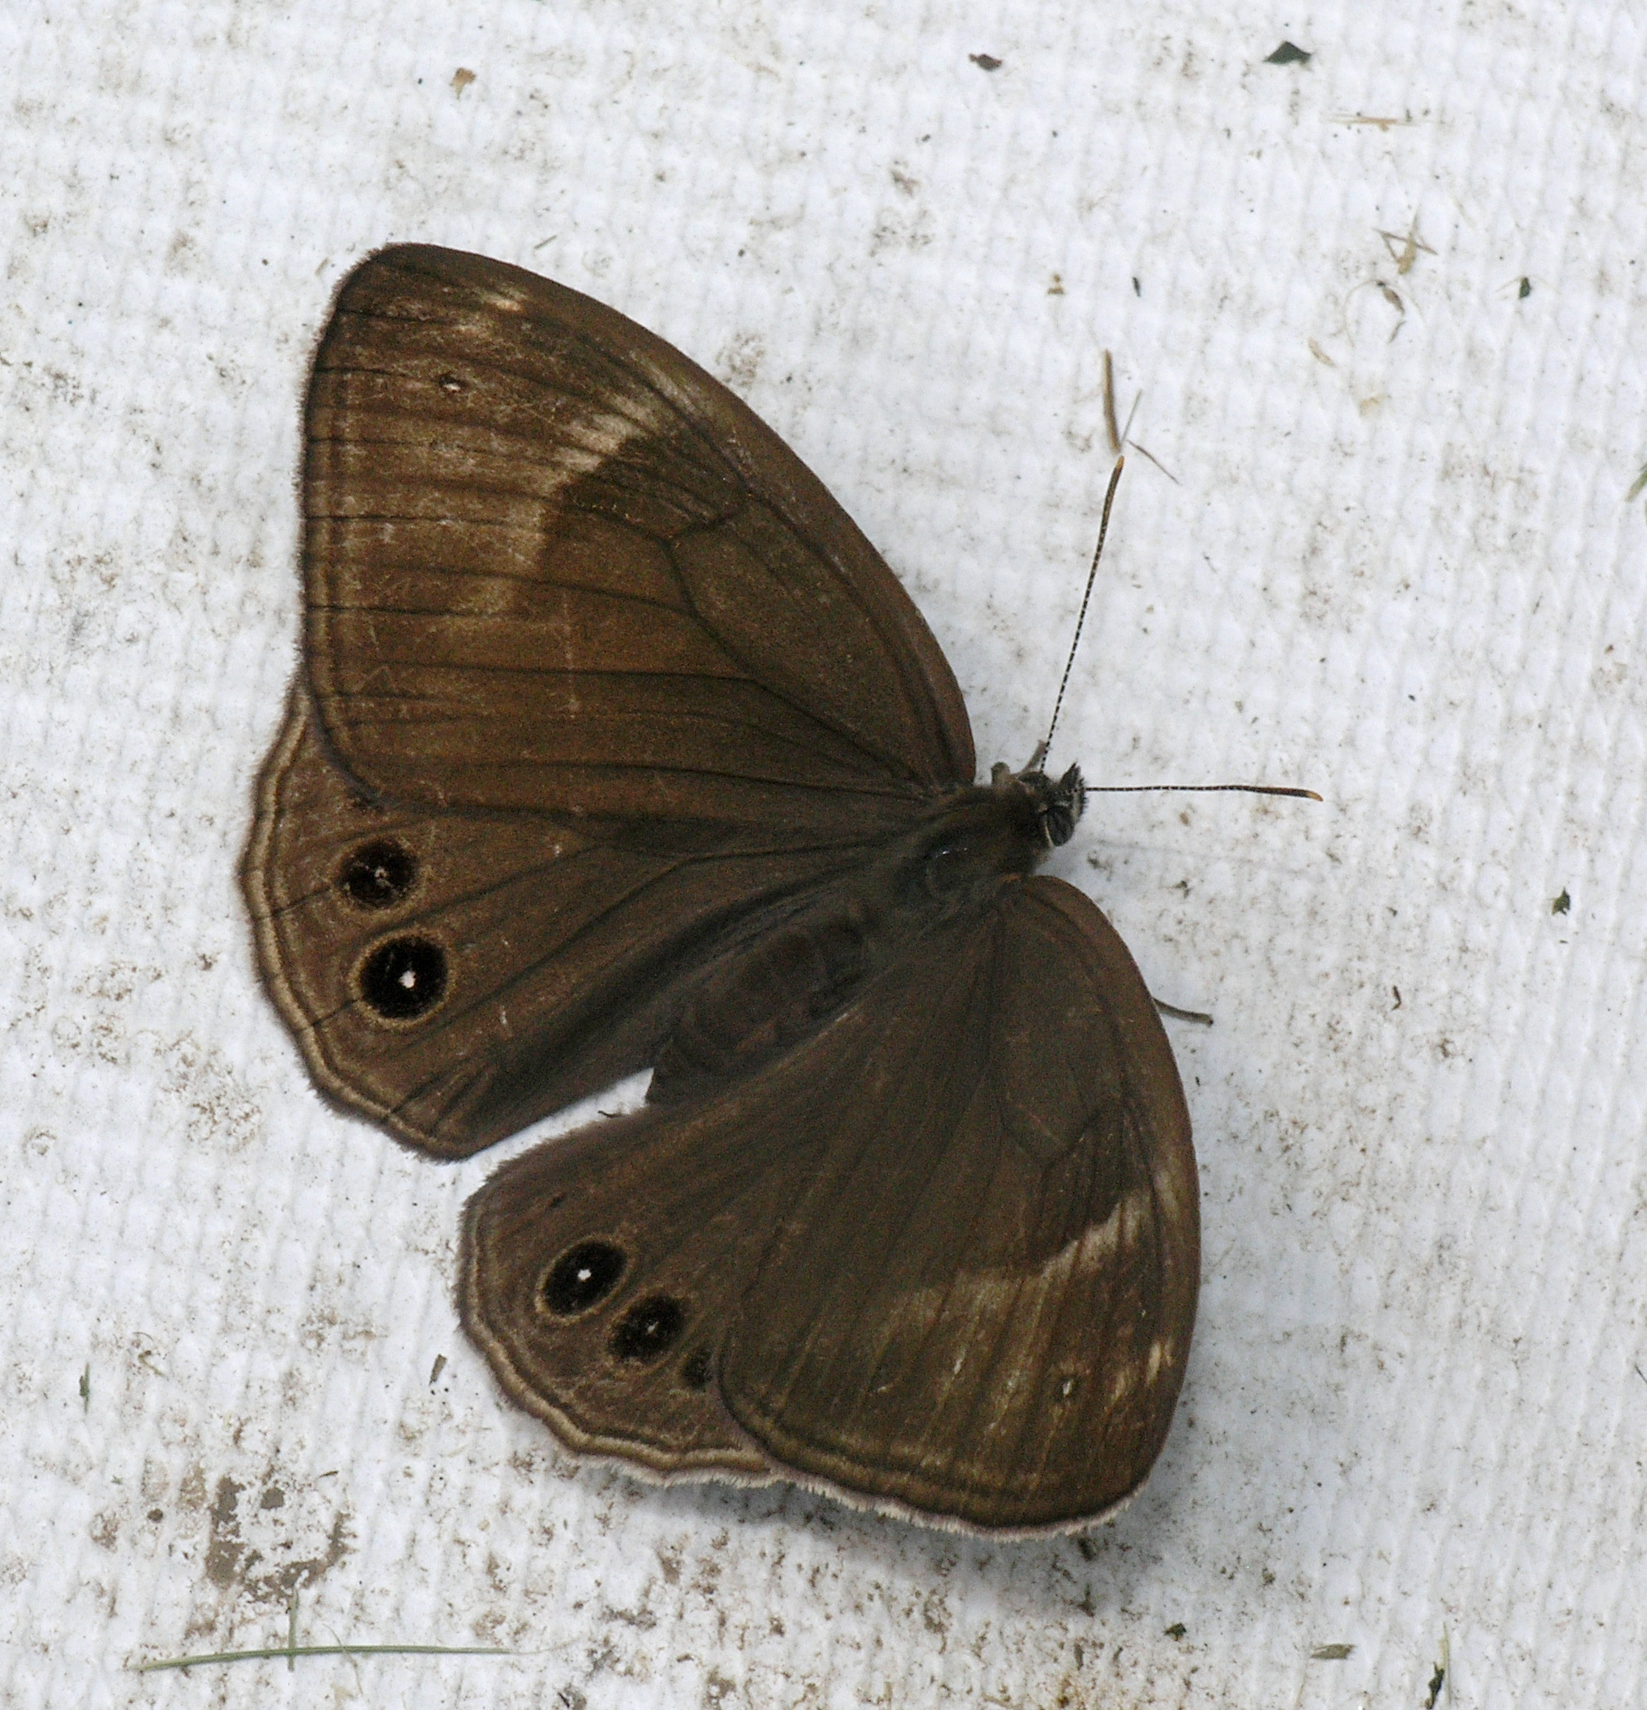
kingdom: Animalia
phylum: Arthropoda
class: Insecta
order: Lepidoptera
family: Nymphalidae
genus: Lethe
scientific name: Lethe marginalis
